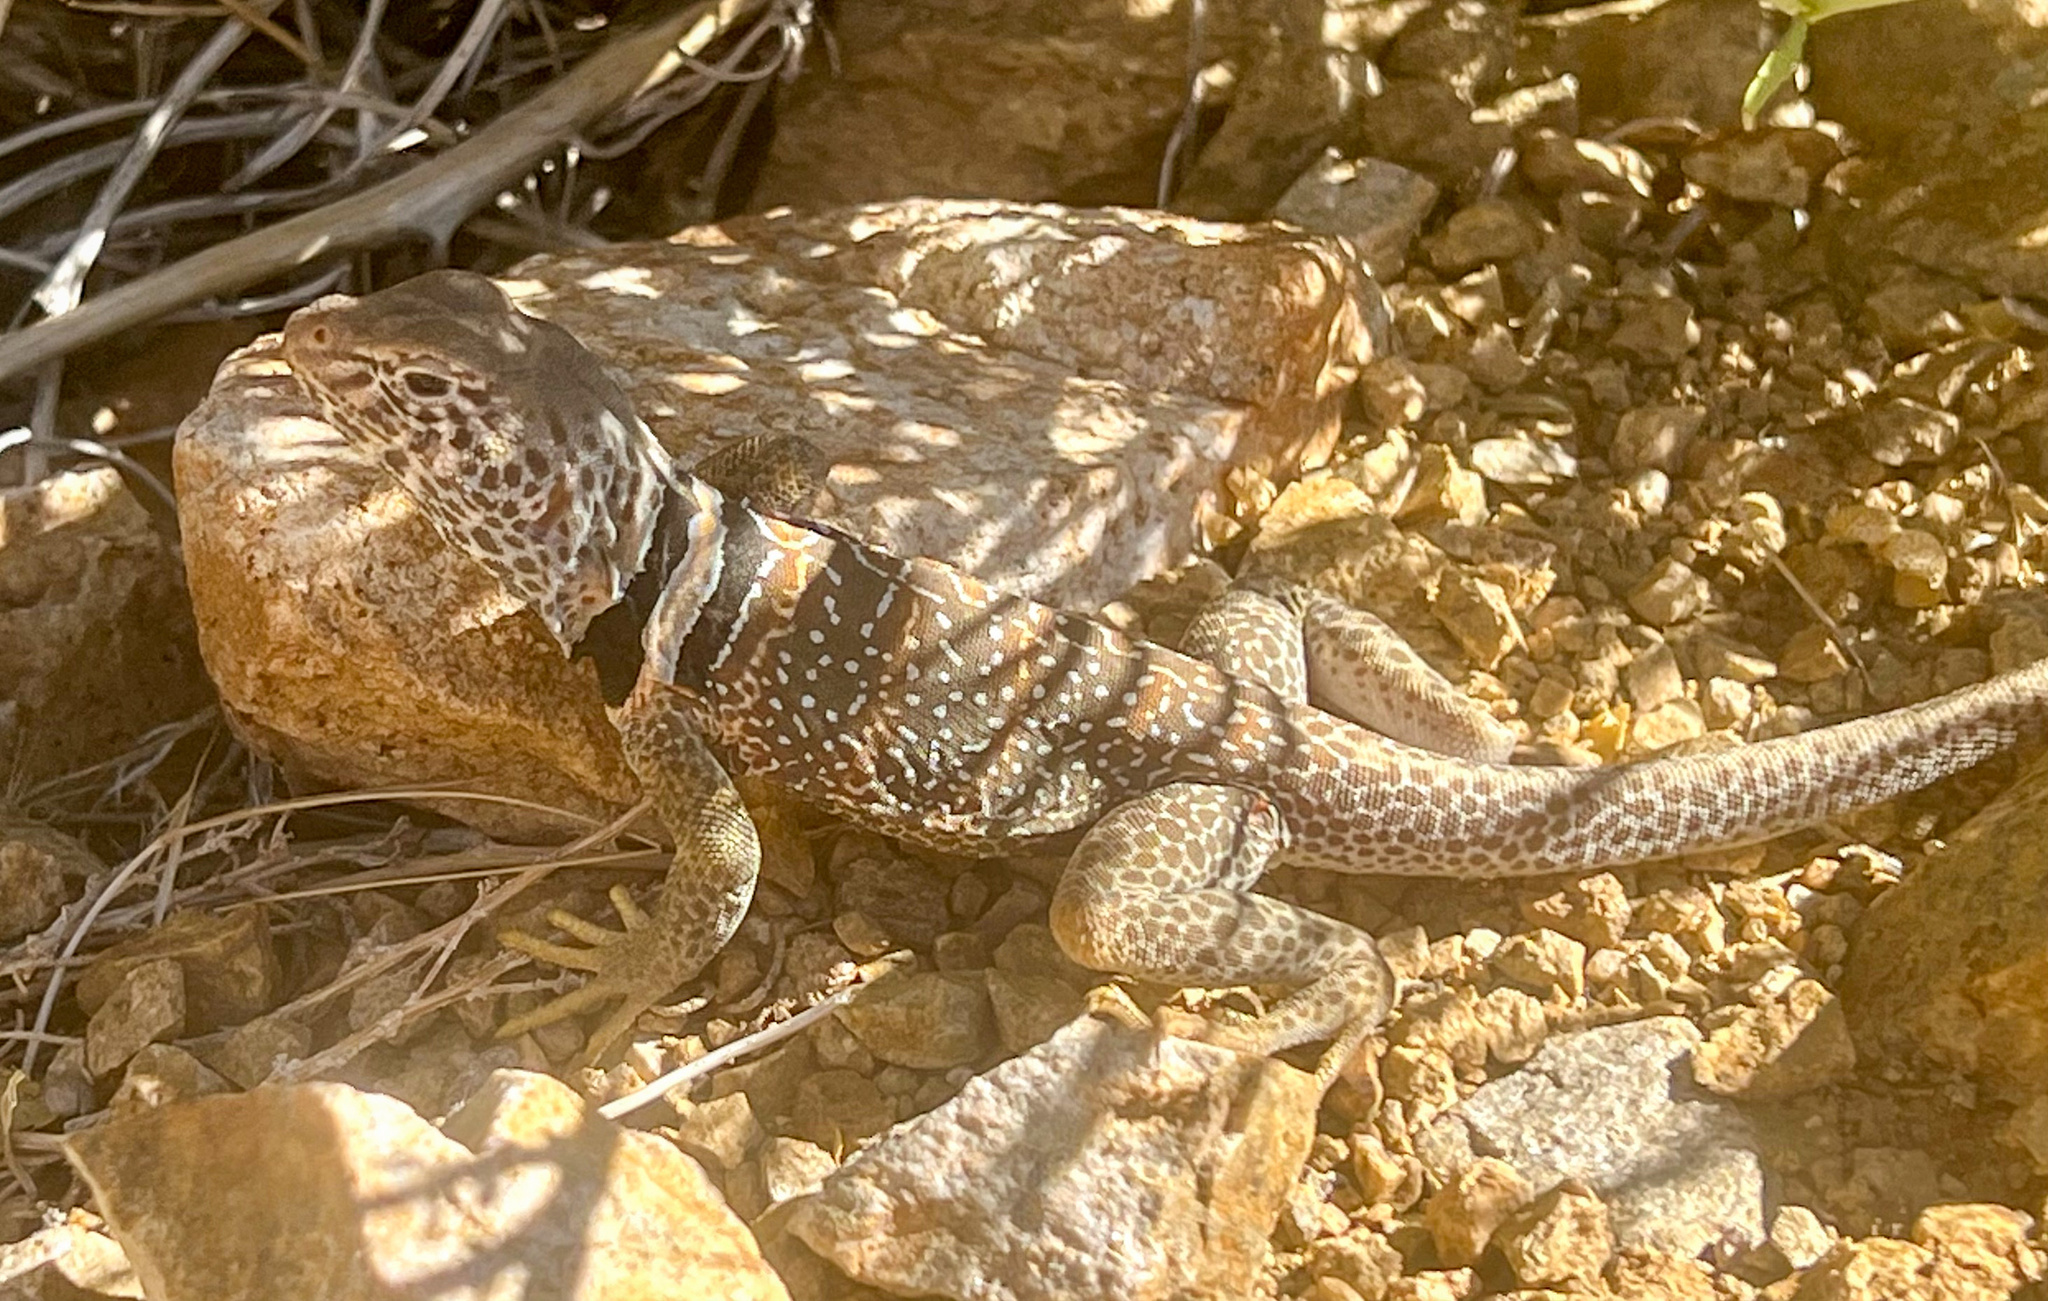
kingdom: Animalia
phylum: Chordata
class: Squamata
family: Crotaphytidae
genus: Crotaphytus
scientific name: Crotaphytus bicinctores
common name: Mojave black-collared lizard
